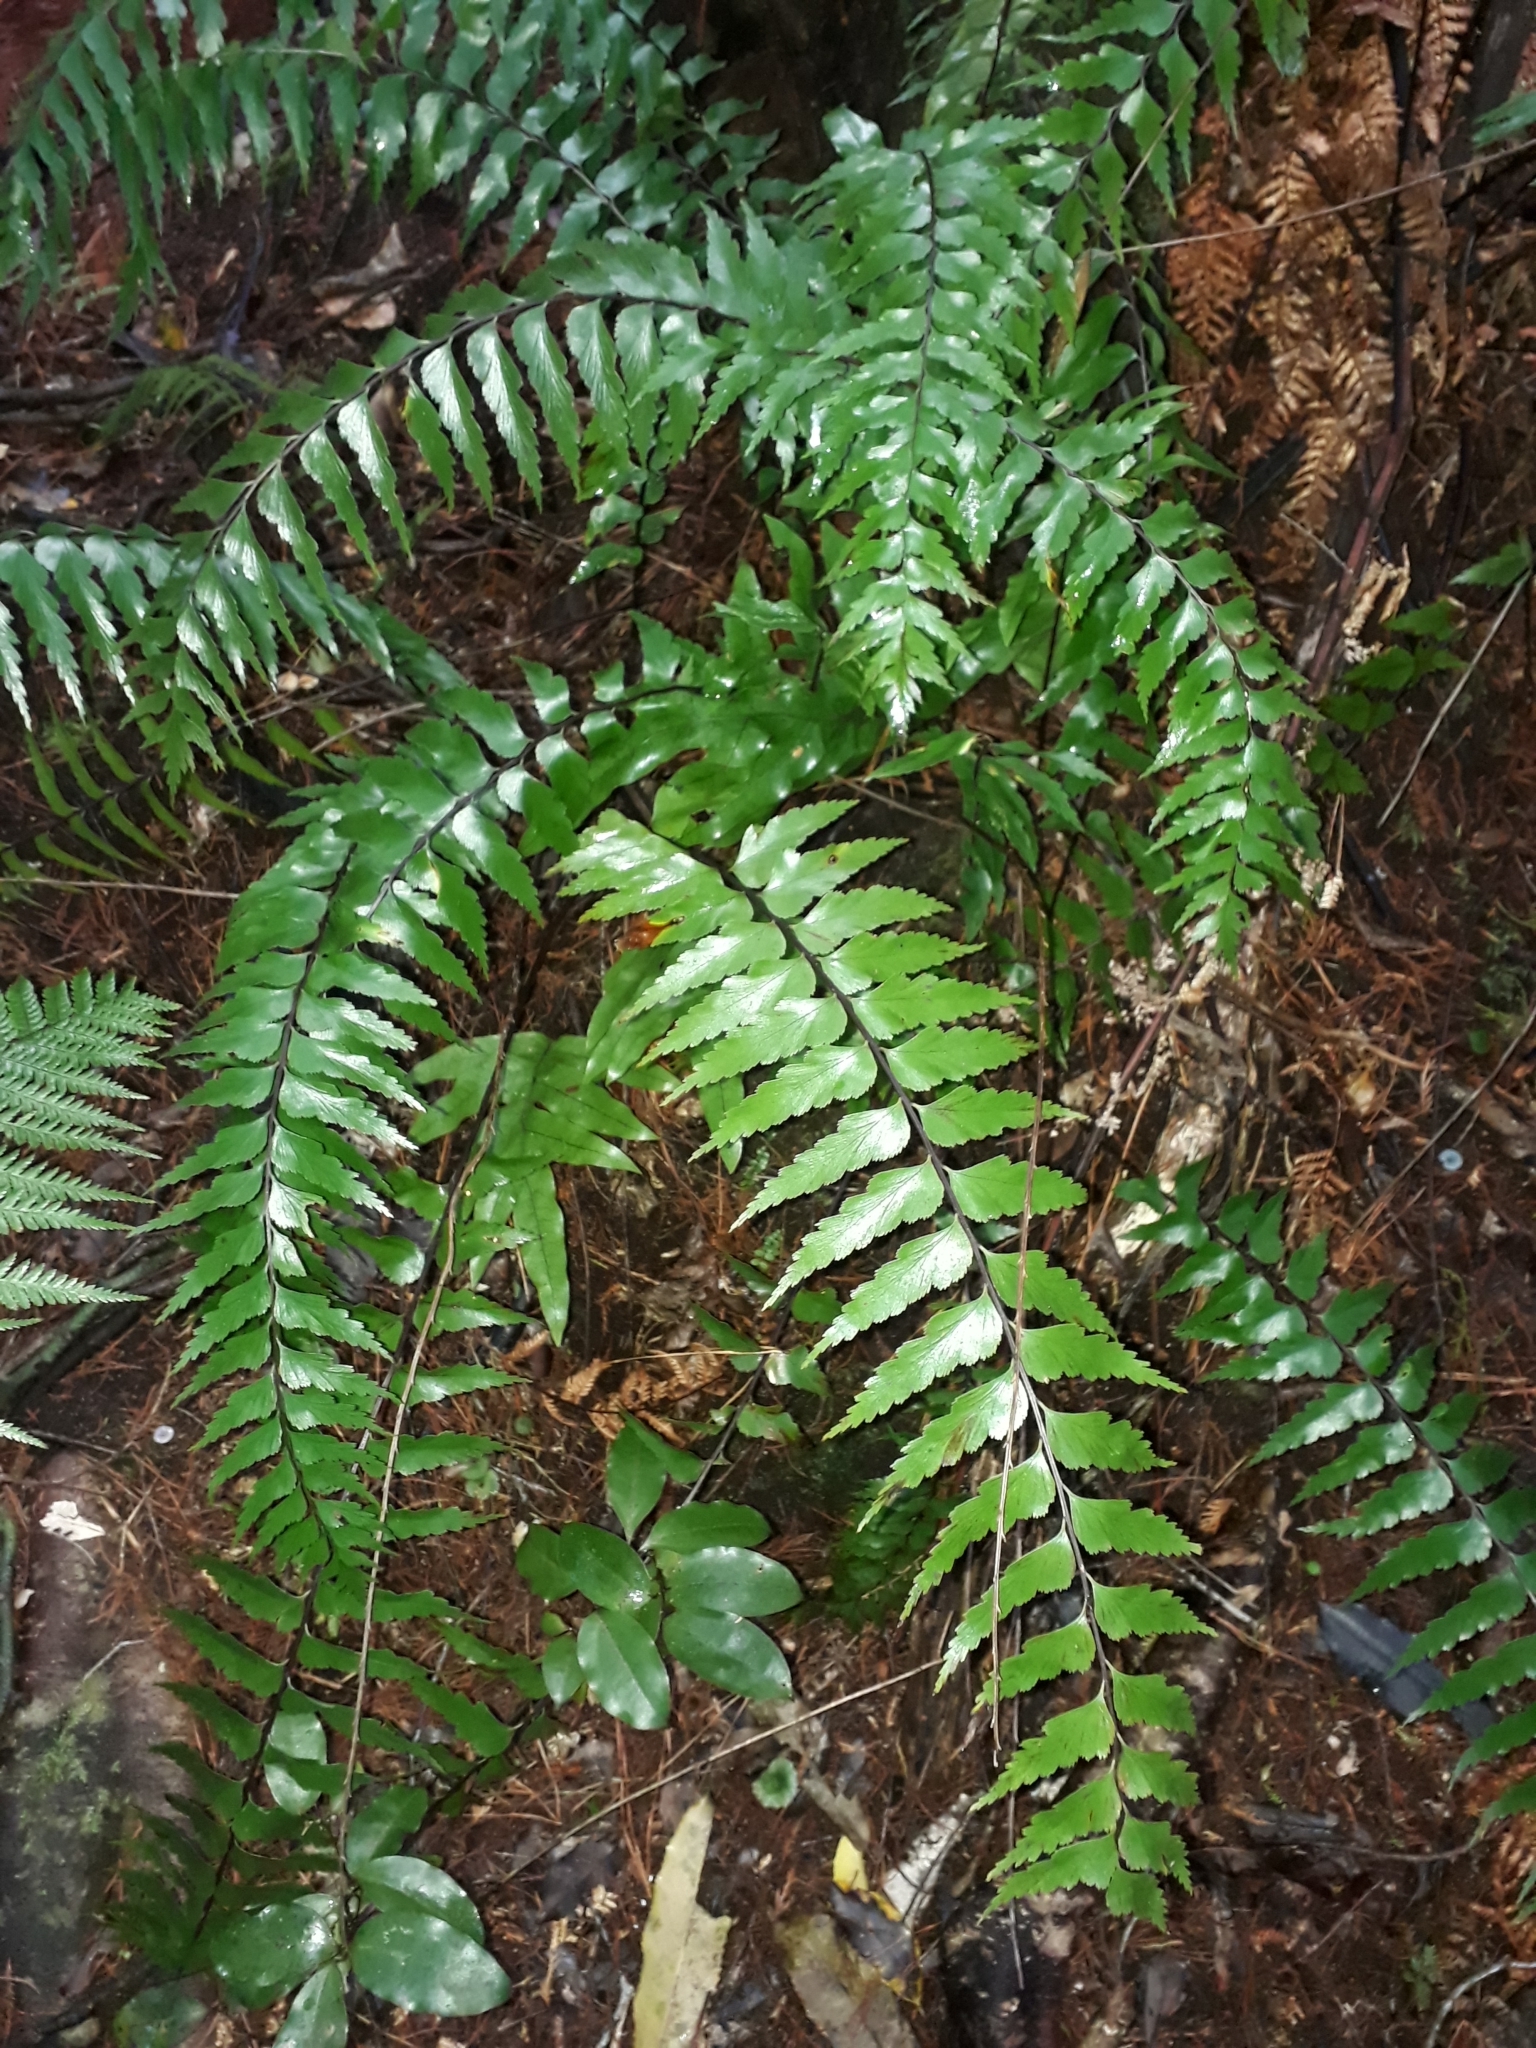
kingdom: Plantae
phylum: Tracheophyta
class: Polypodiopsida
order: Polypodiales
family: Aspleniaceae
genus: Asplenium
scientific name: Asplenium polyodon
